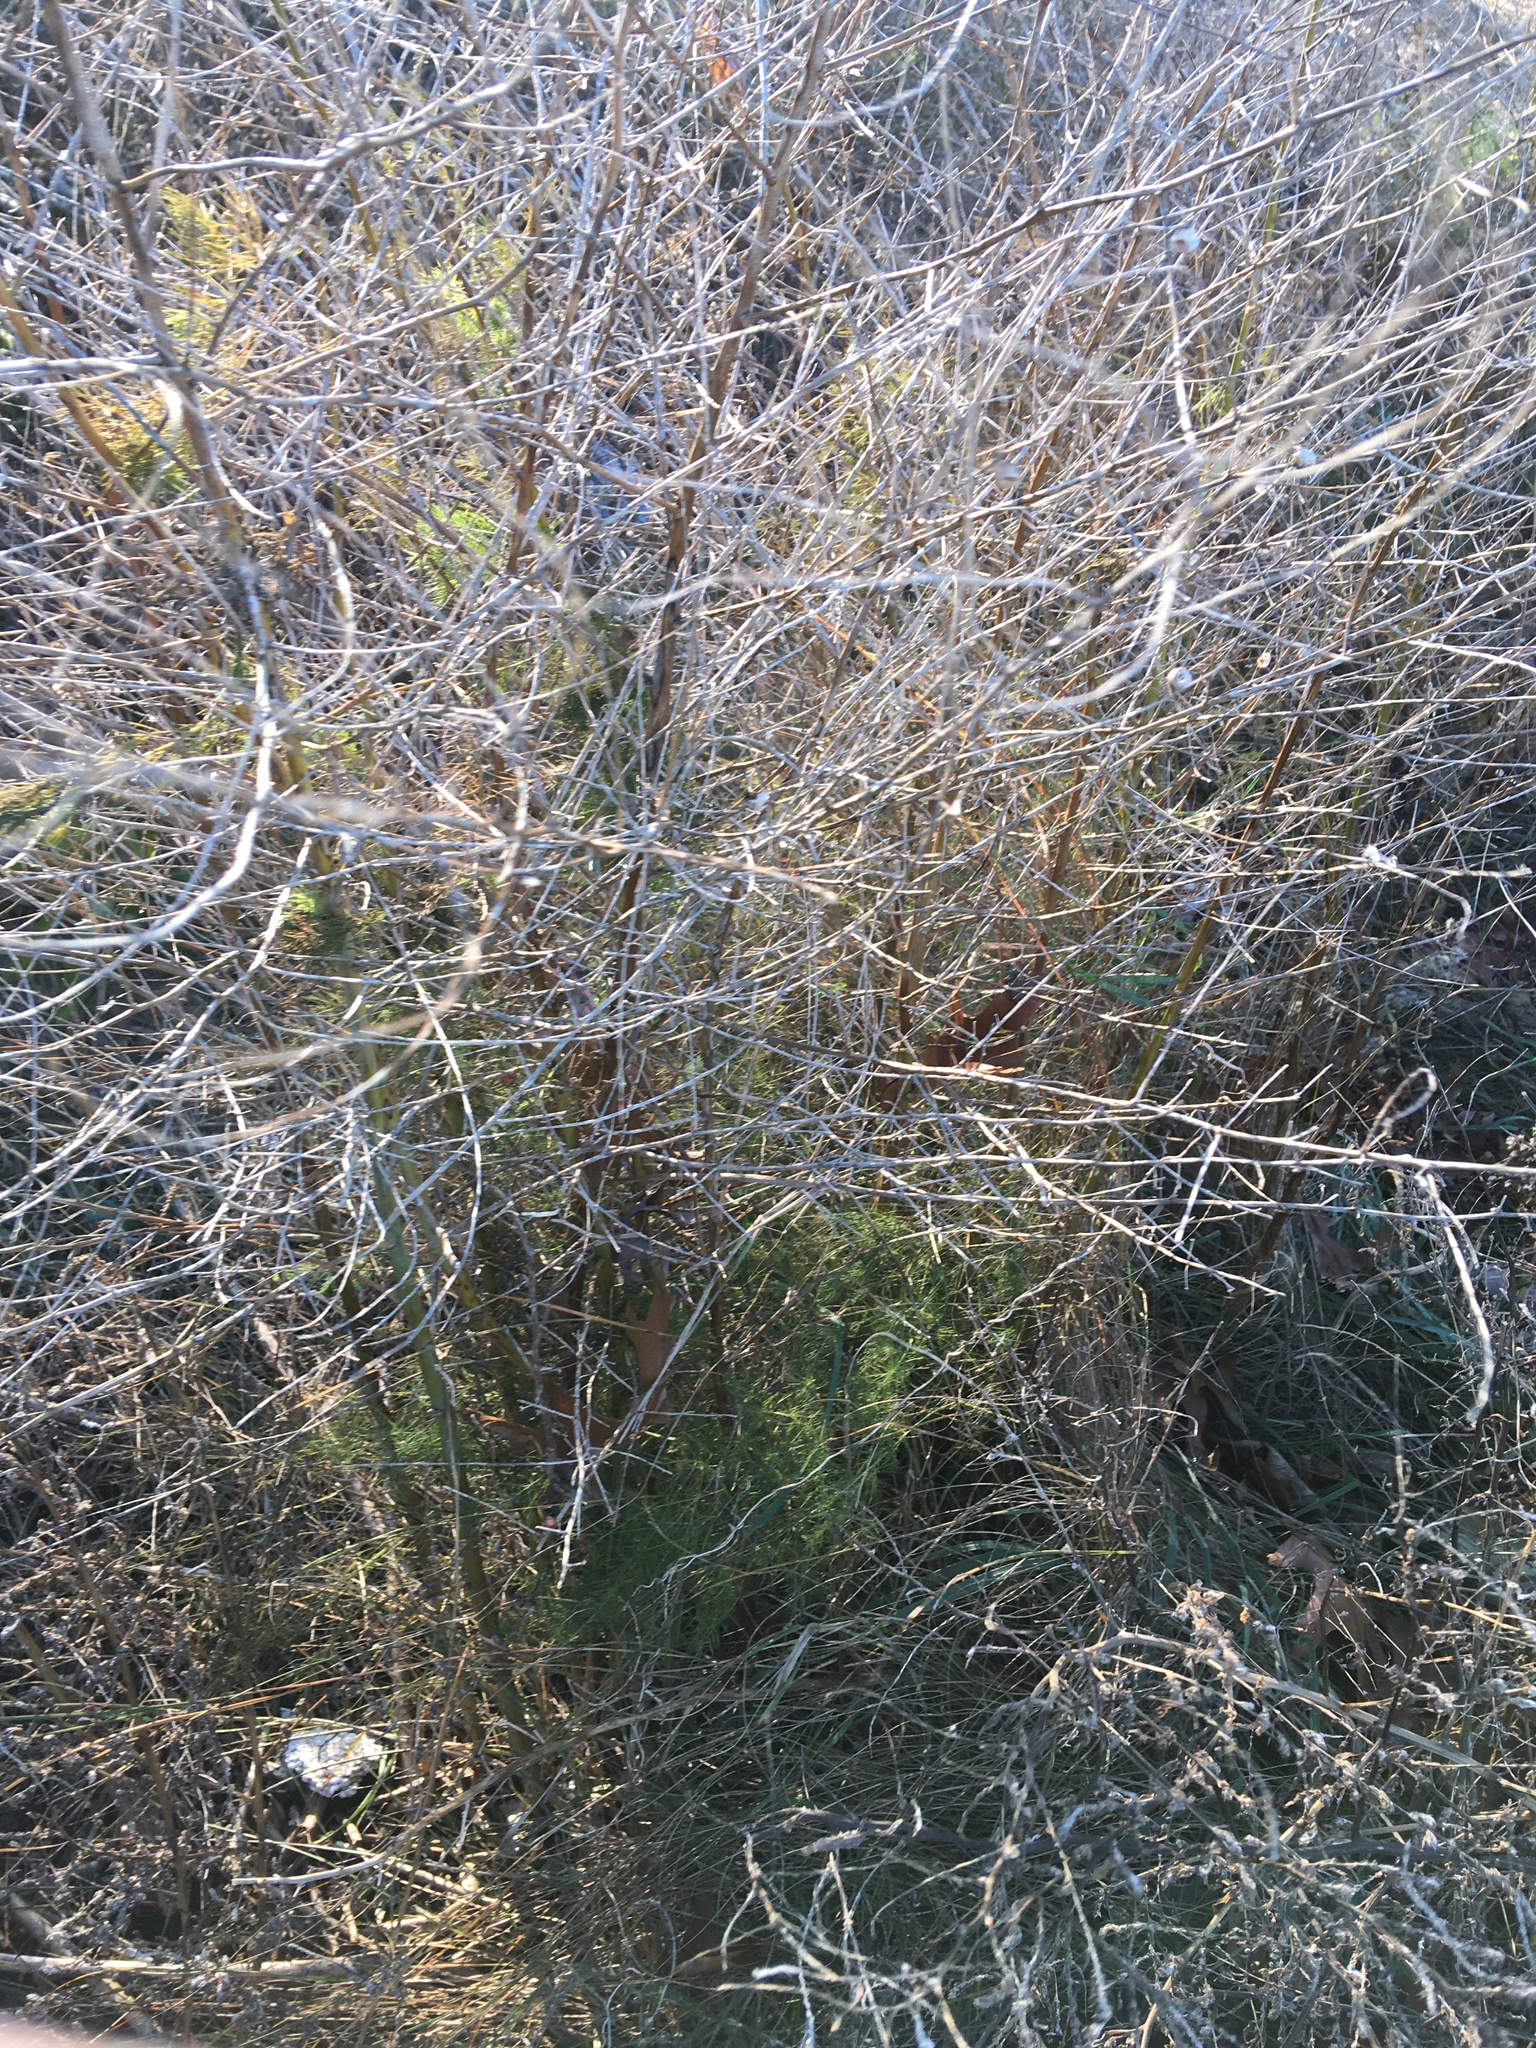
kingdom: Plantae
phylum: Tracheophyta
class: Liliopsida
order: Asparagales
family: Asparagaceae
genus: Asparagus
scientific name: Asparagus officinalis
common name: Garden asparagus
